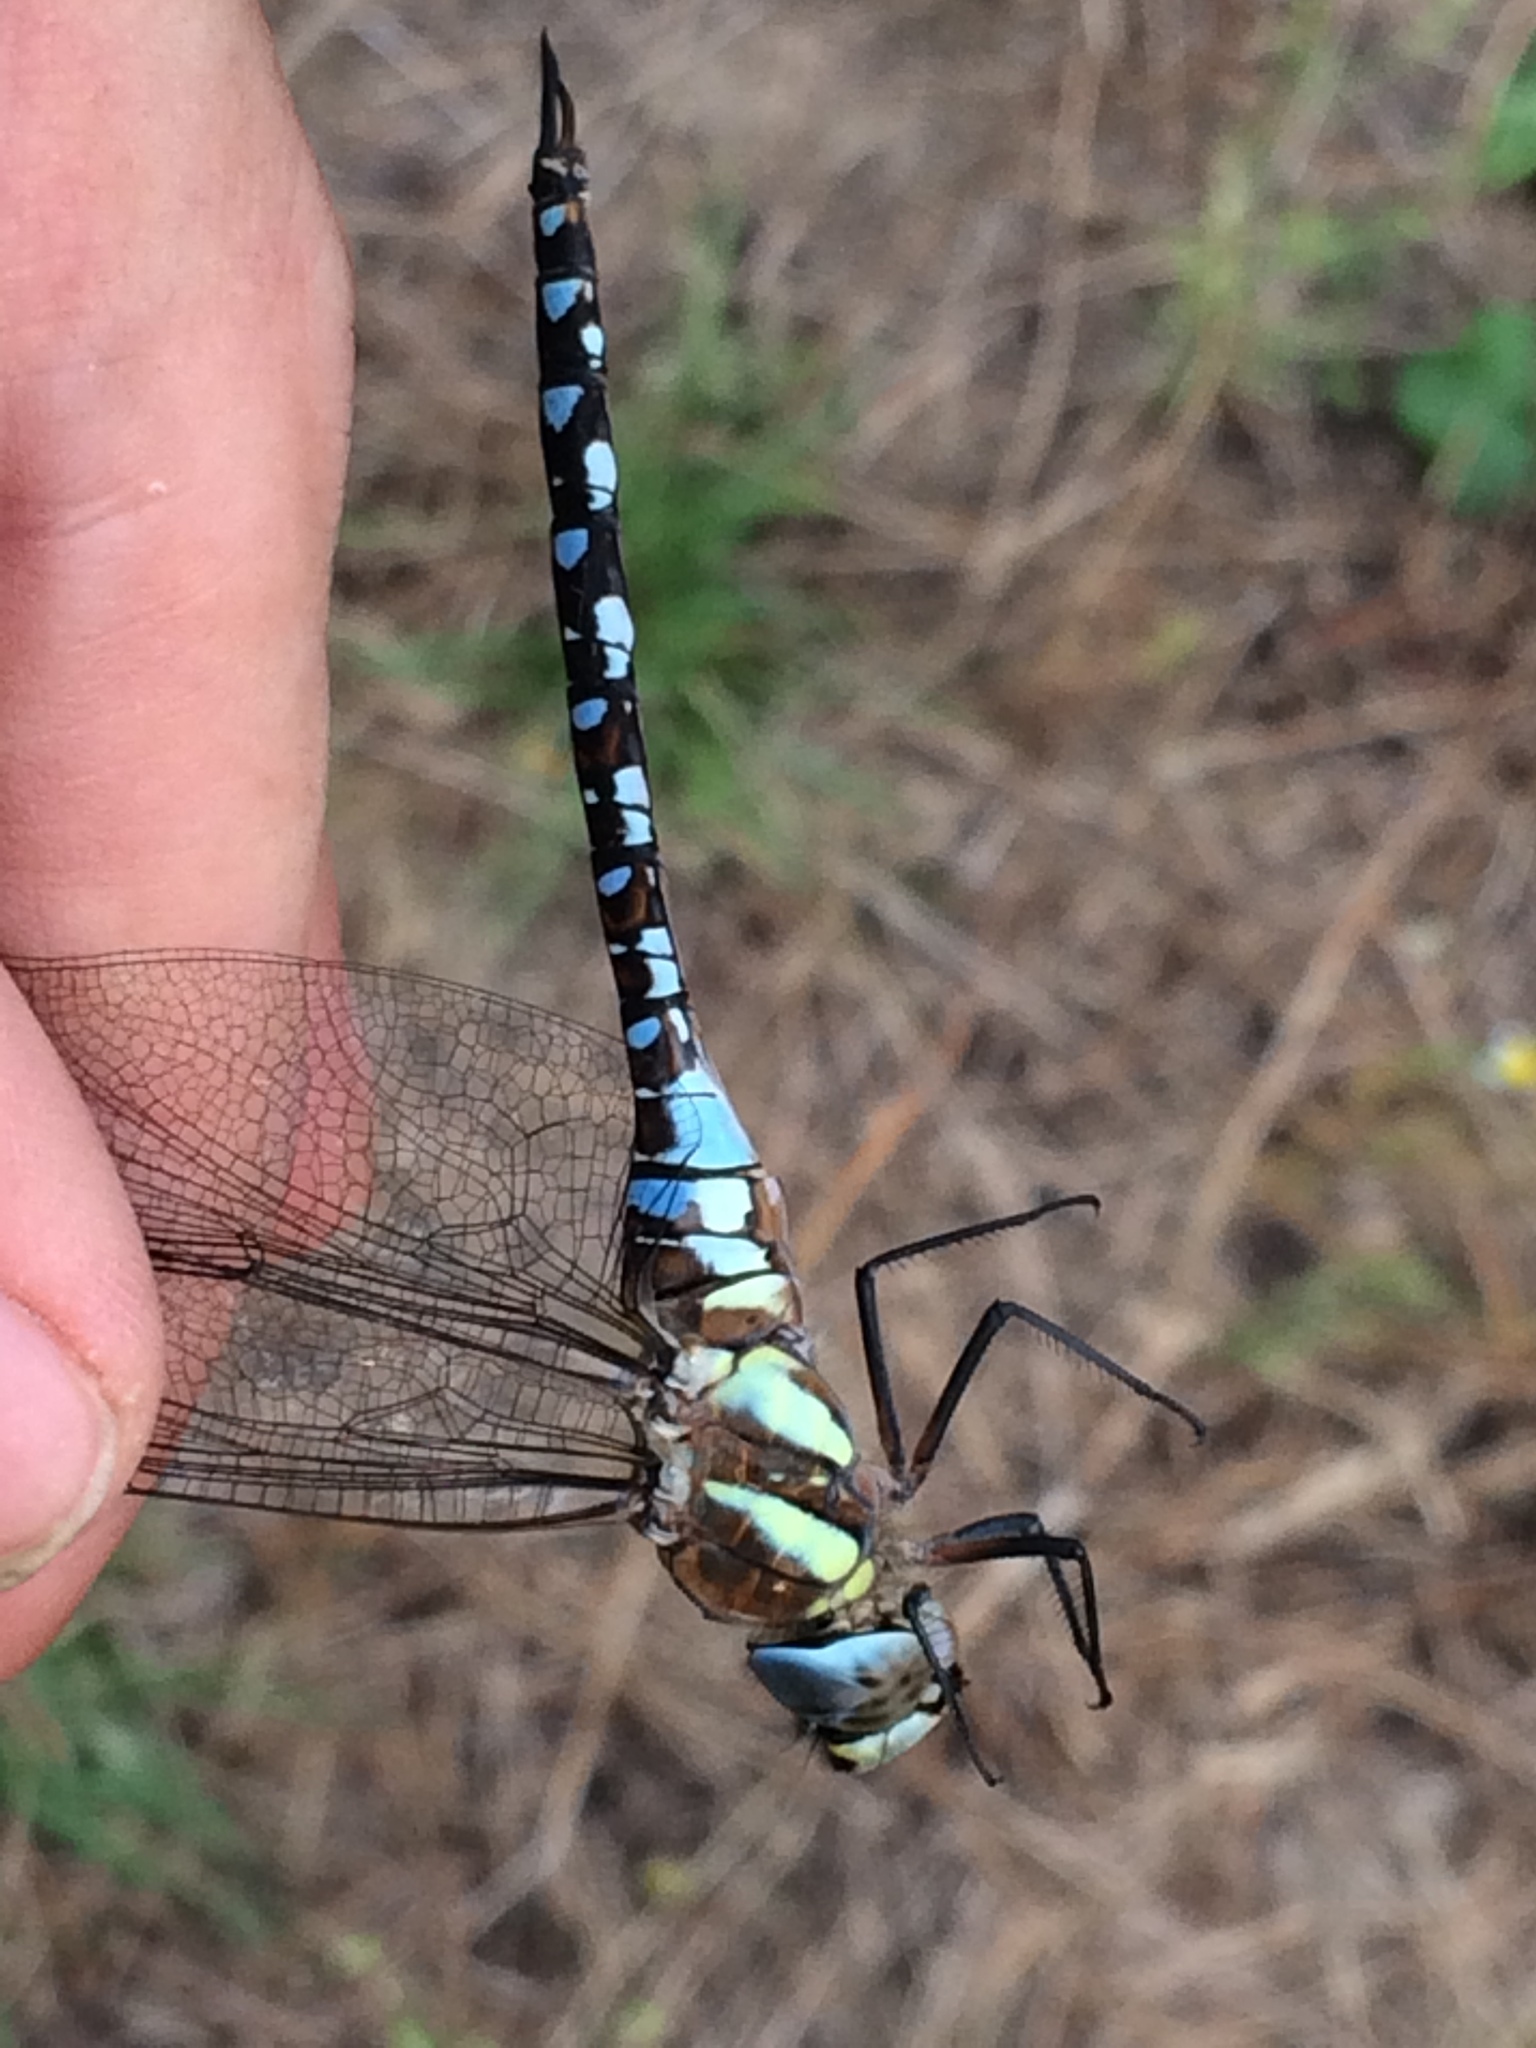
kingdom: Animalia
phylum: Arthropoda
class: Insecta
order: Odonata
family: Aeshnidae
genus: Aeshna
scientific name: Aeshna mixta
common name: Migrant hawker
